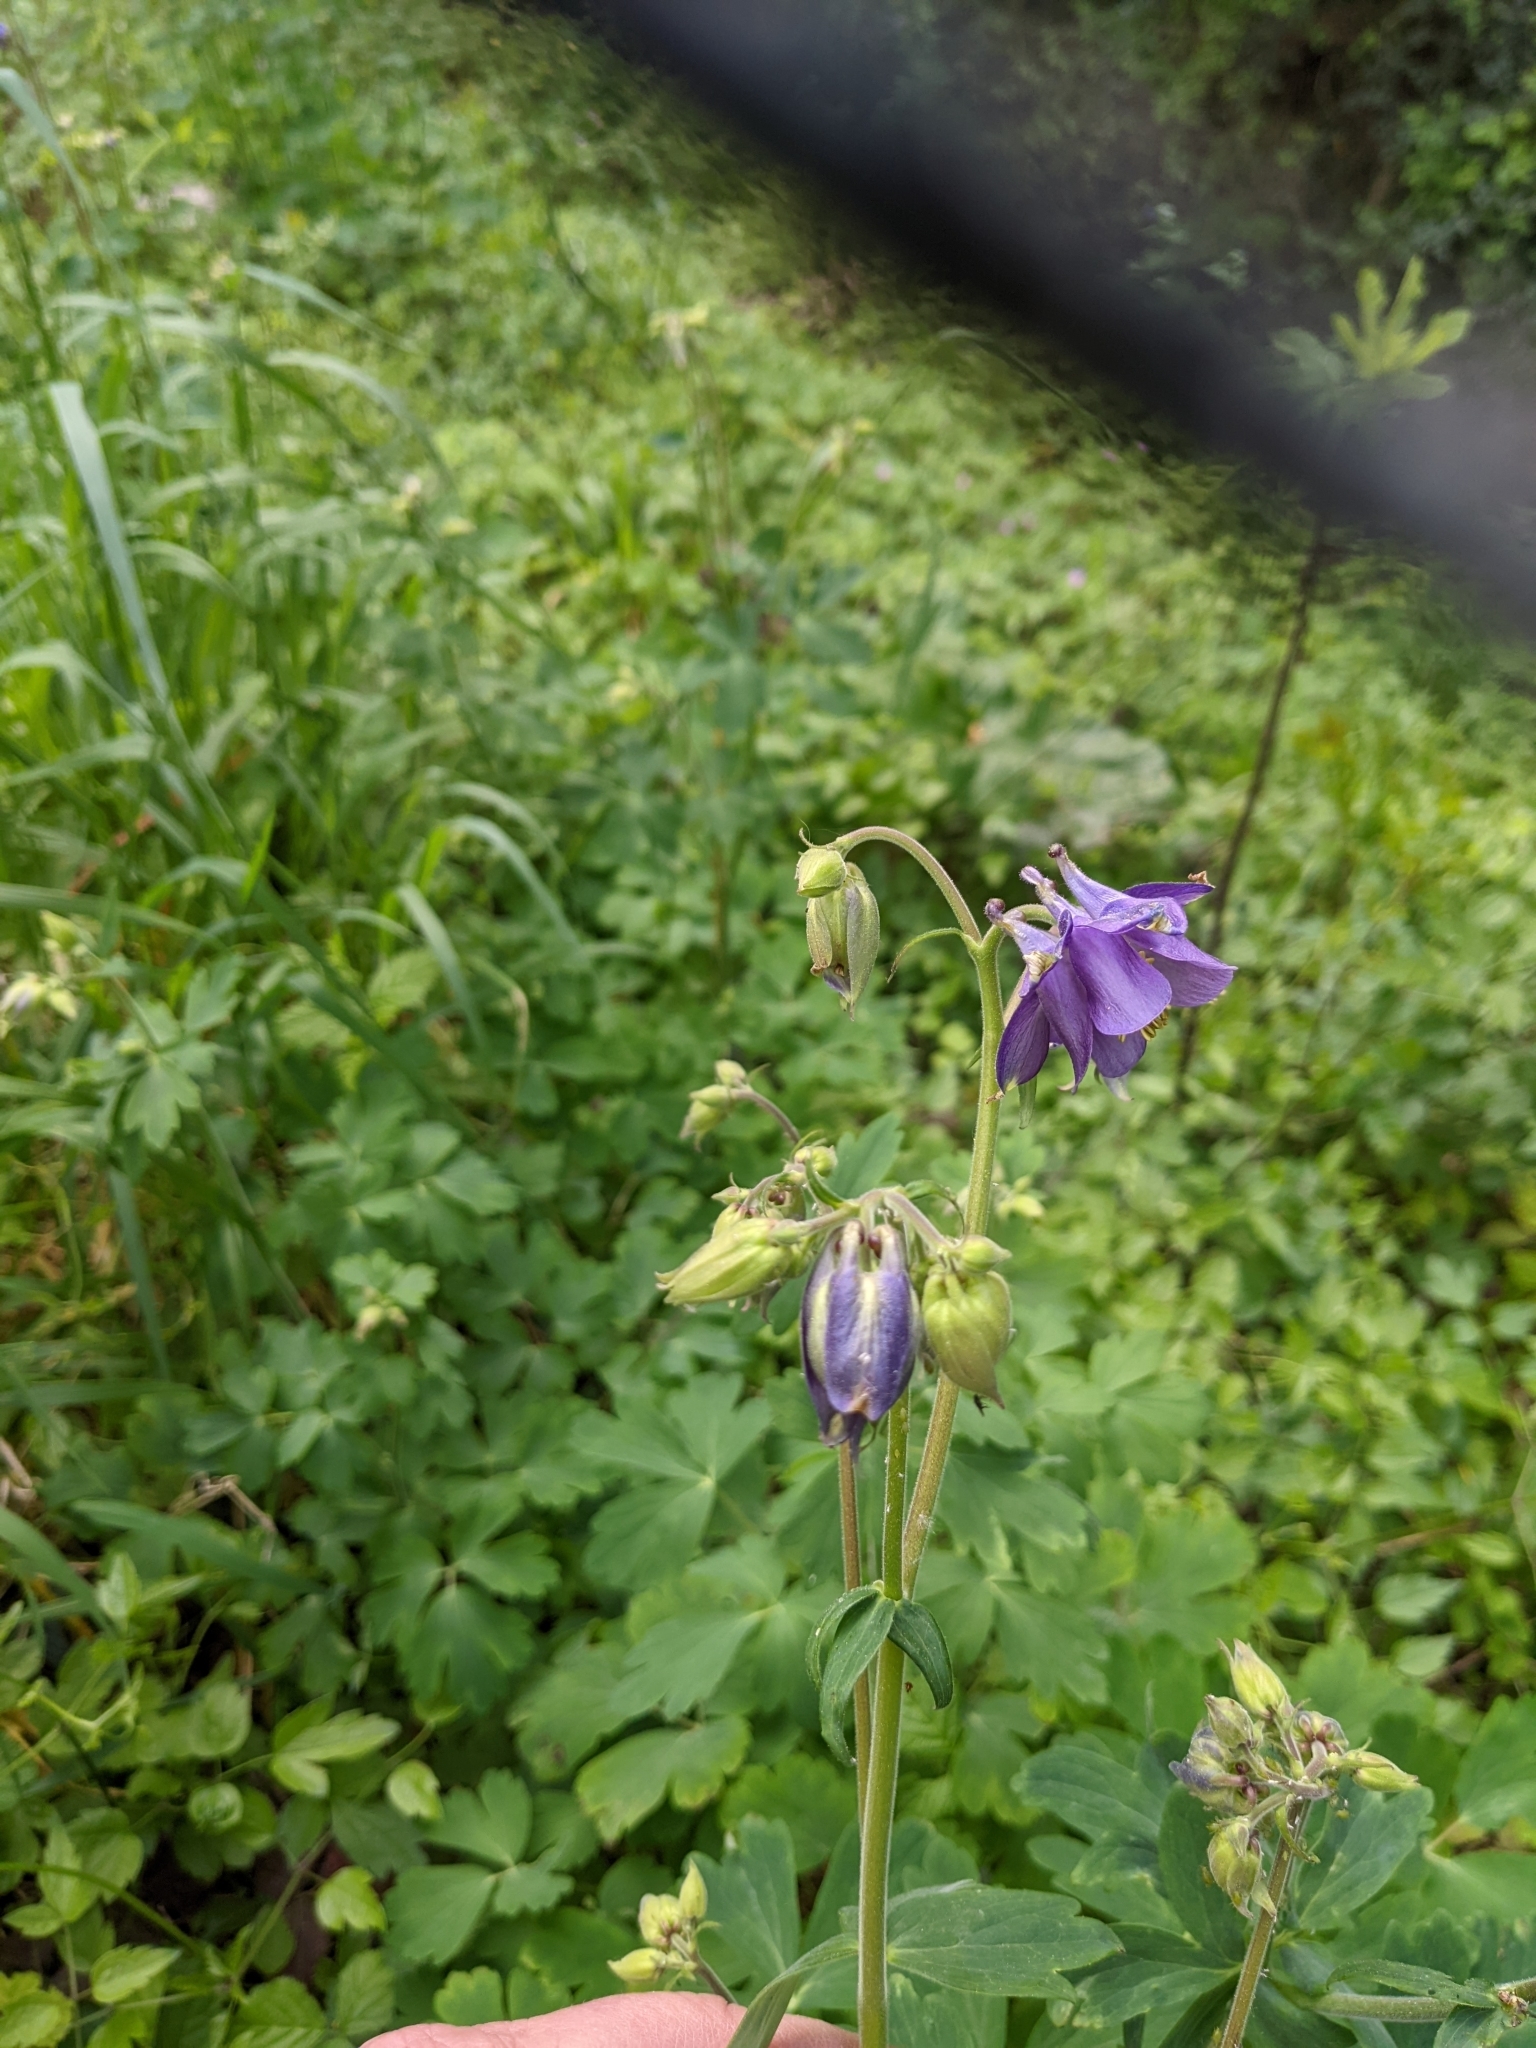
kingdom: Plantae
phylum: Tracheophyta
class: Magnoliopsida
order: Ranunculales
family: Ranunculaceae
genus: Aquilegia
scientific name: Aquilegia vulgaris
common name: Columbine
